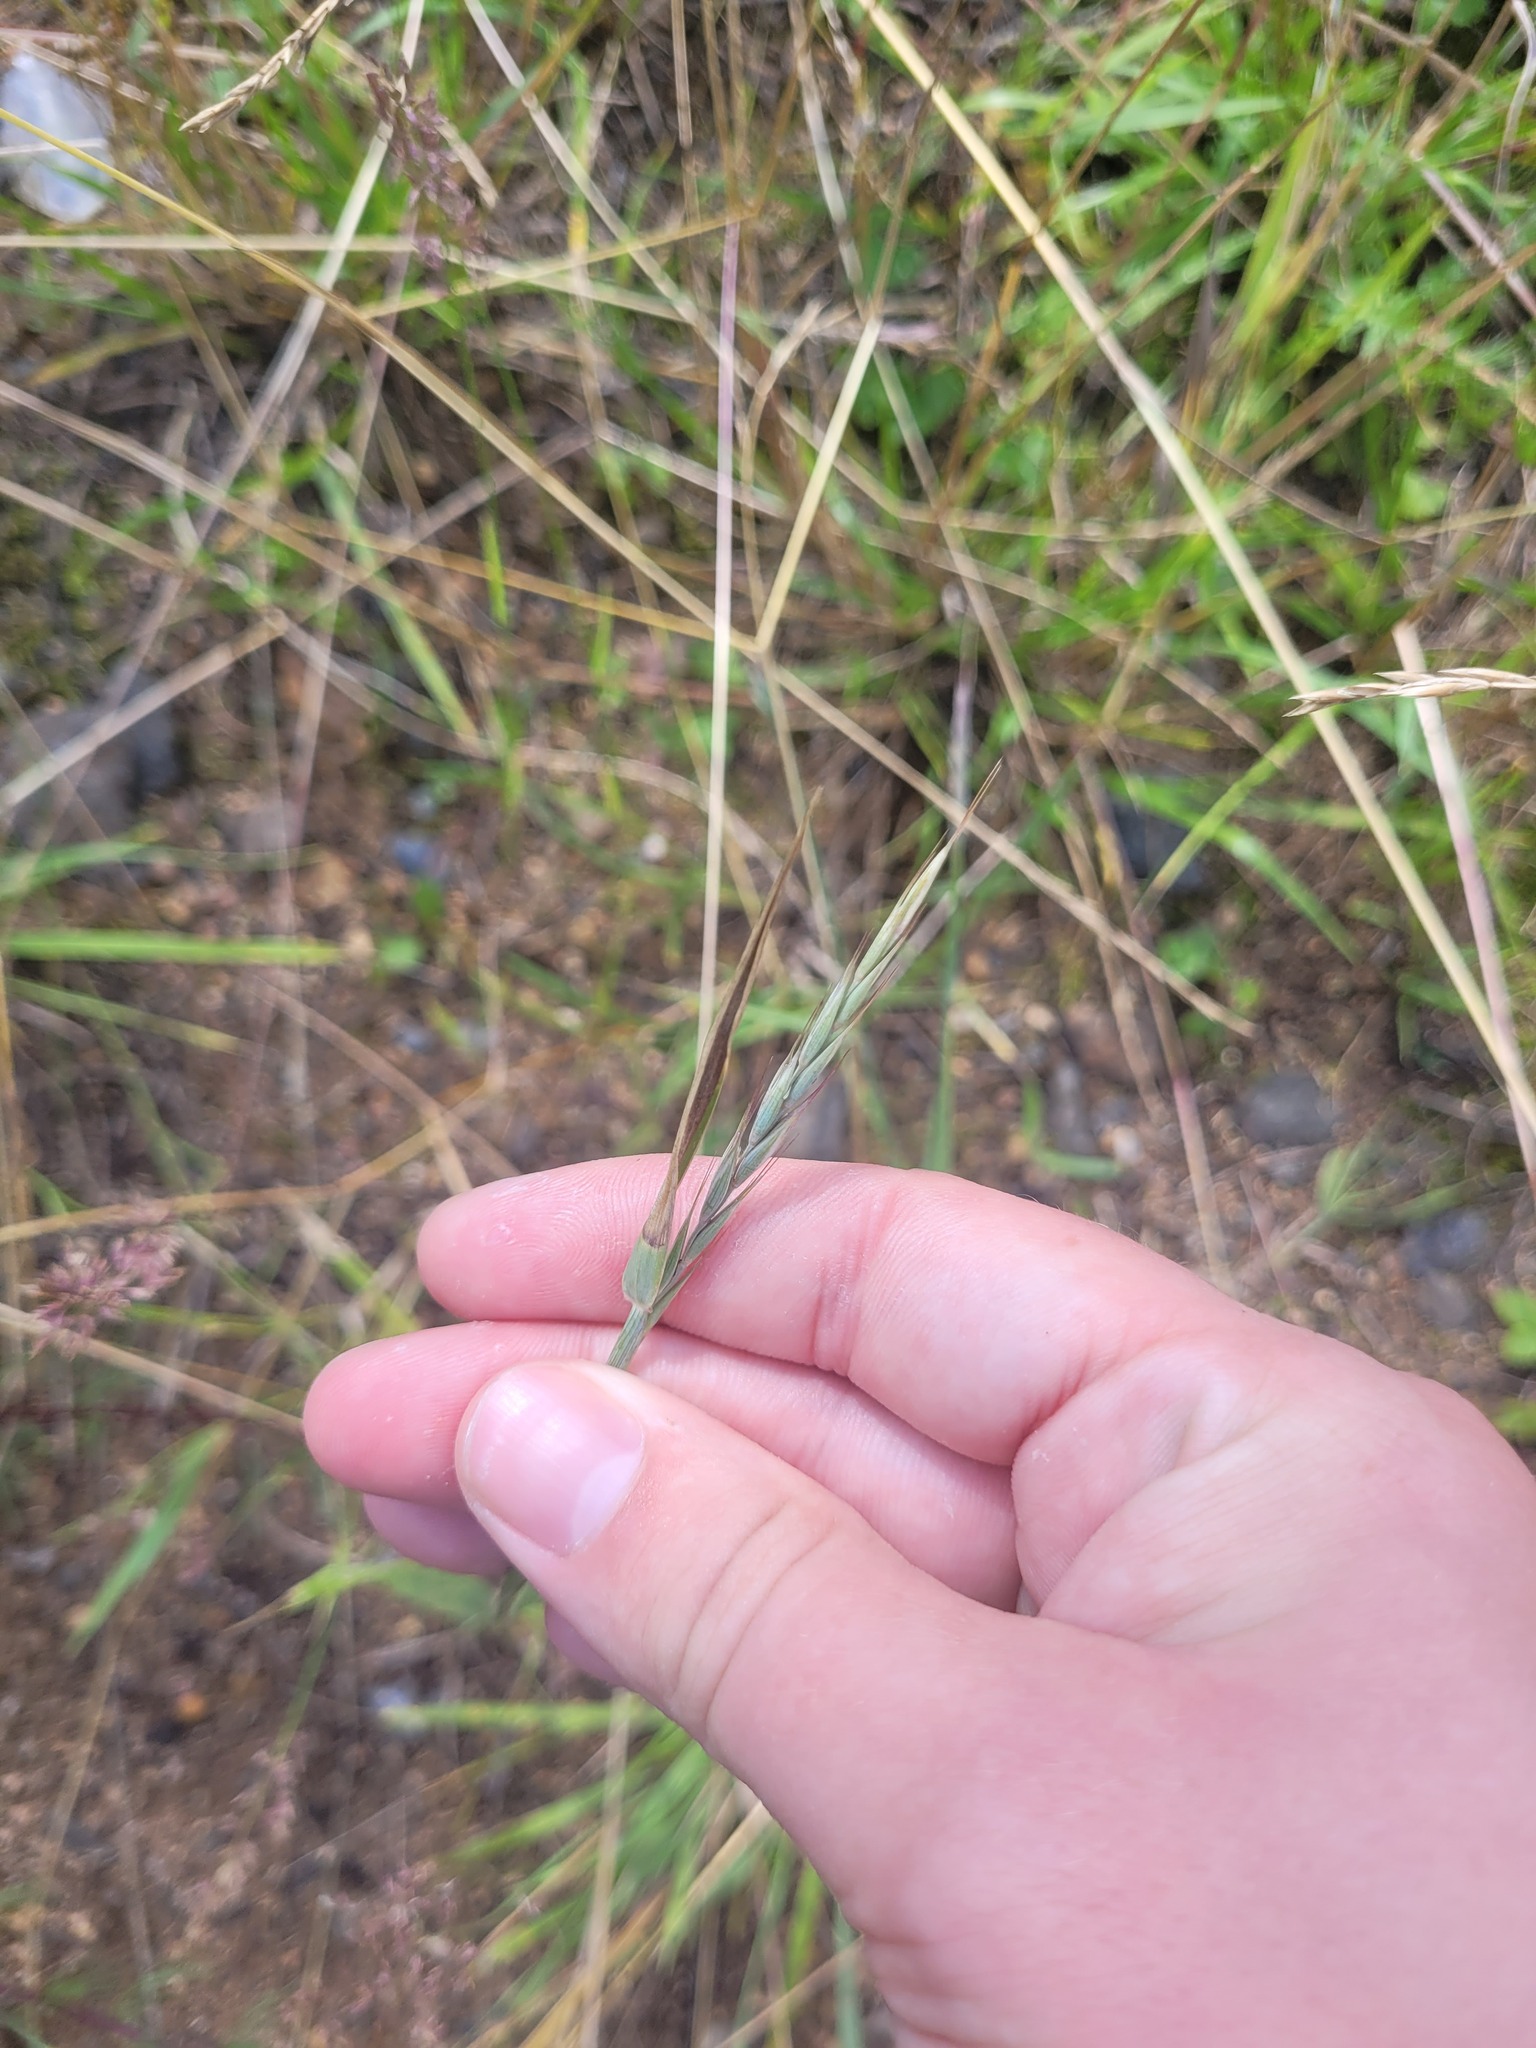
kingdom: Plantae
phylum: Tracheophyta
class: Liliopsida
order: Poales
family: Poaceae
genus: Elymus
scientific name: Elymus repens
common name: Quackgrass
